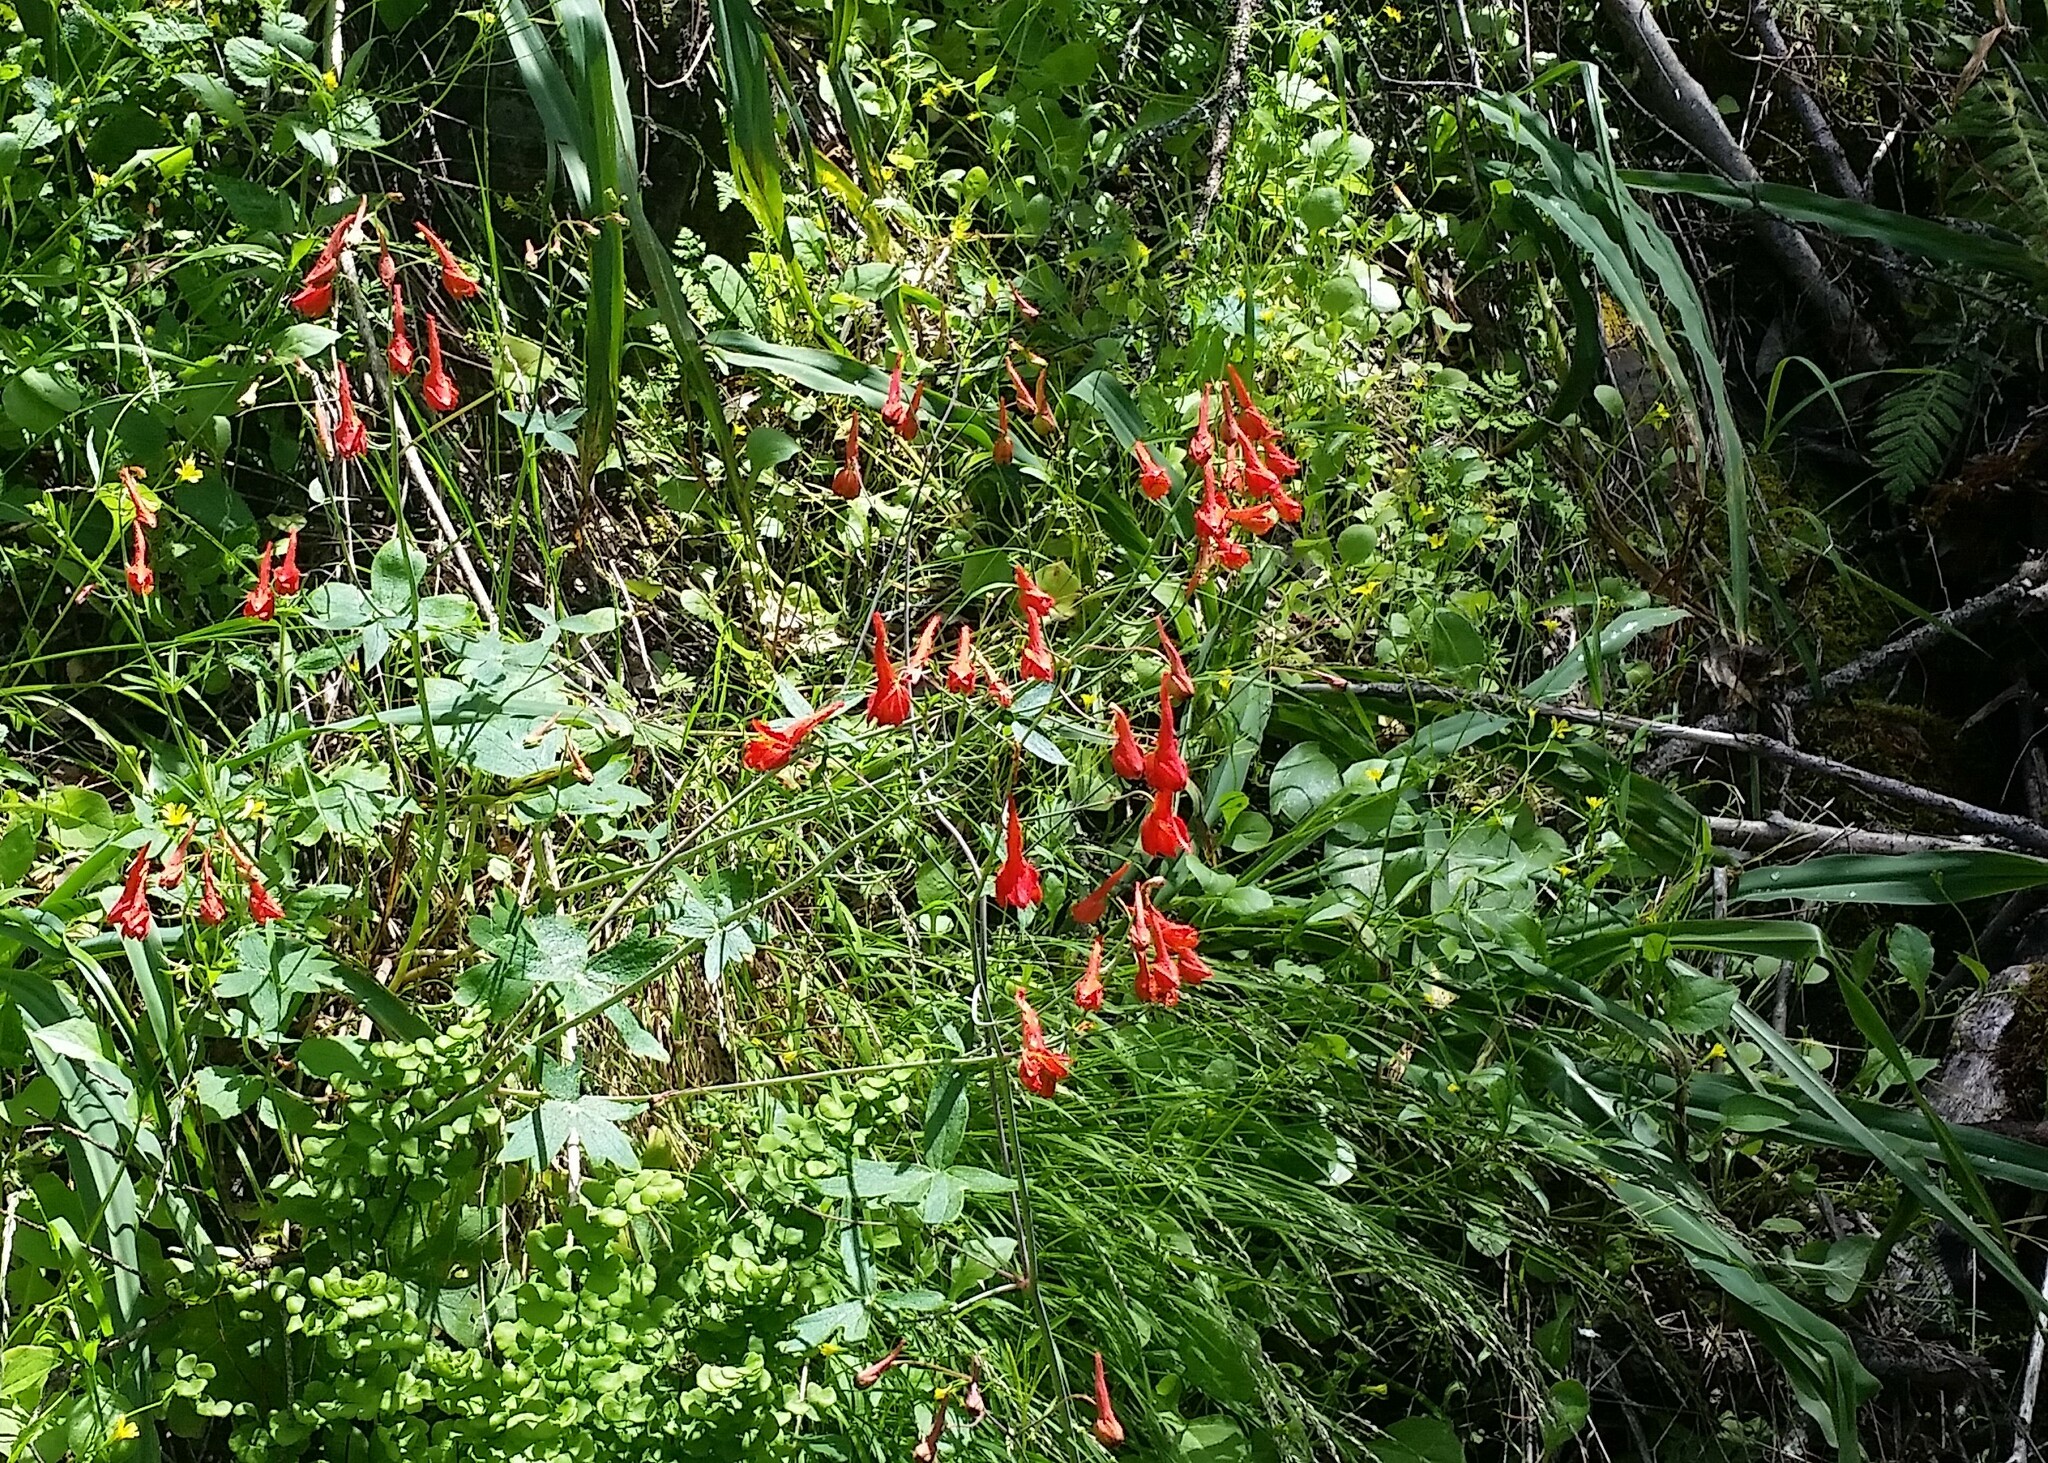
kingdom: Plantae
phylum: Tracheophyta
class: Magnoliopsida
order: Ranunculales
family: Ranunculaceae
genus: Delphinium
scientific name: Delphinium nudicaule
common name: Red larkspur
